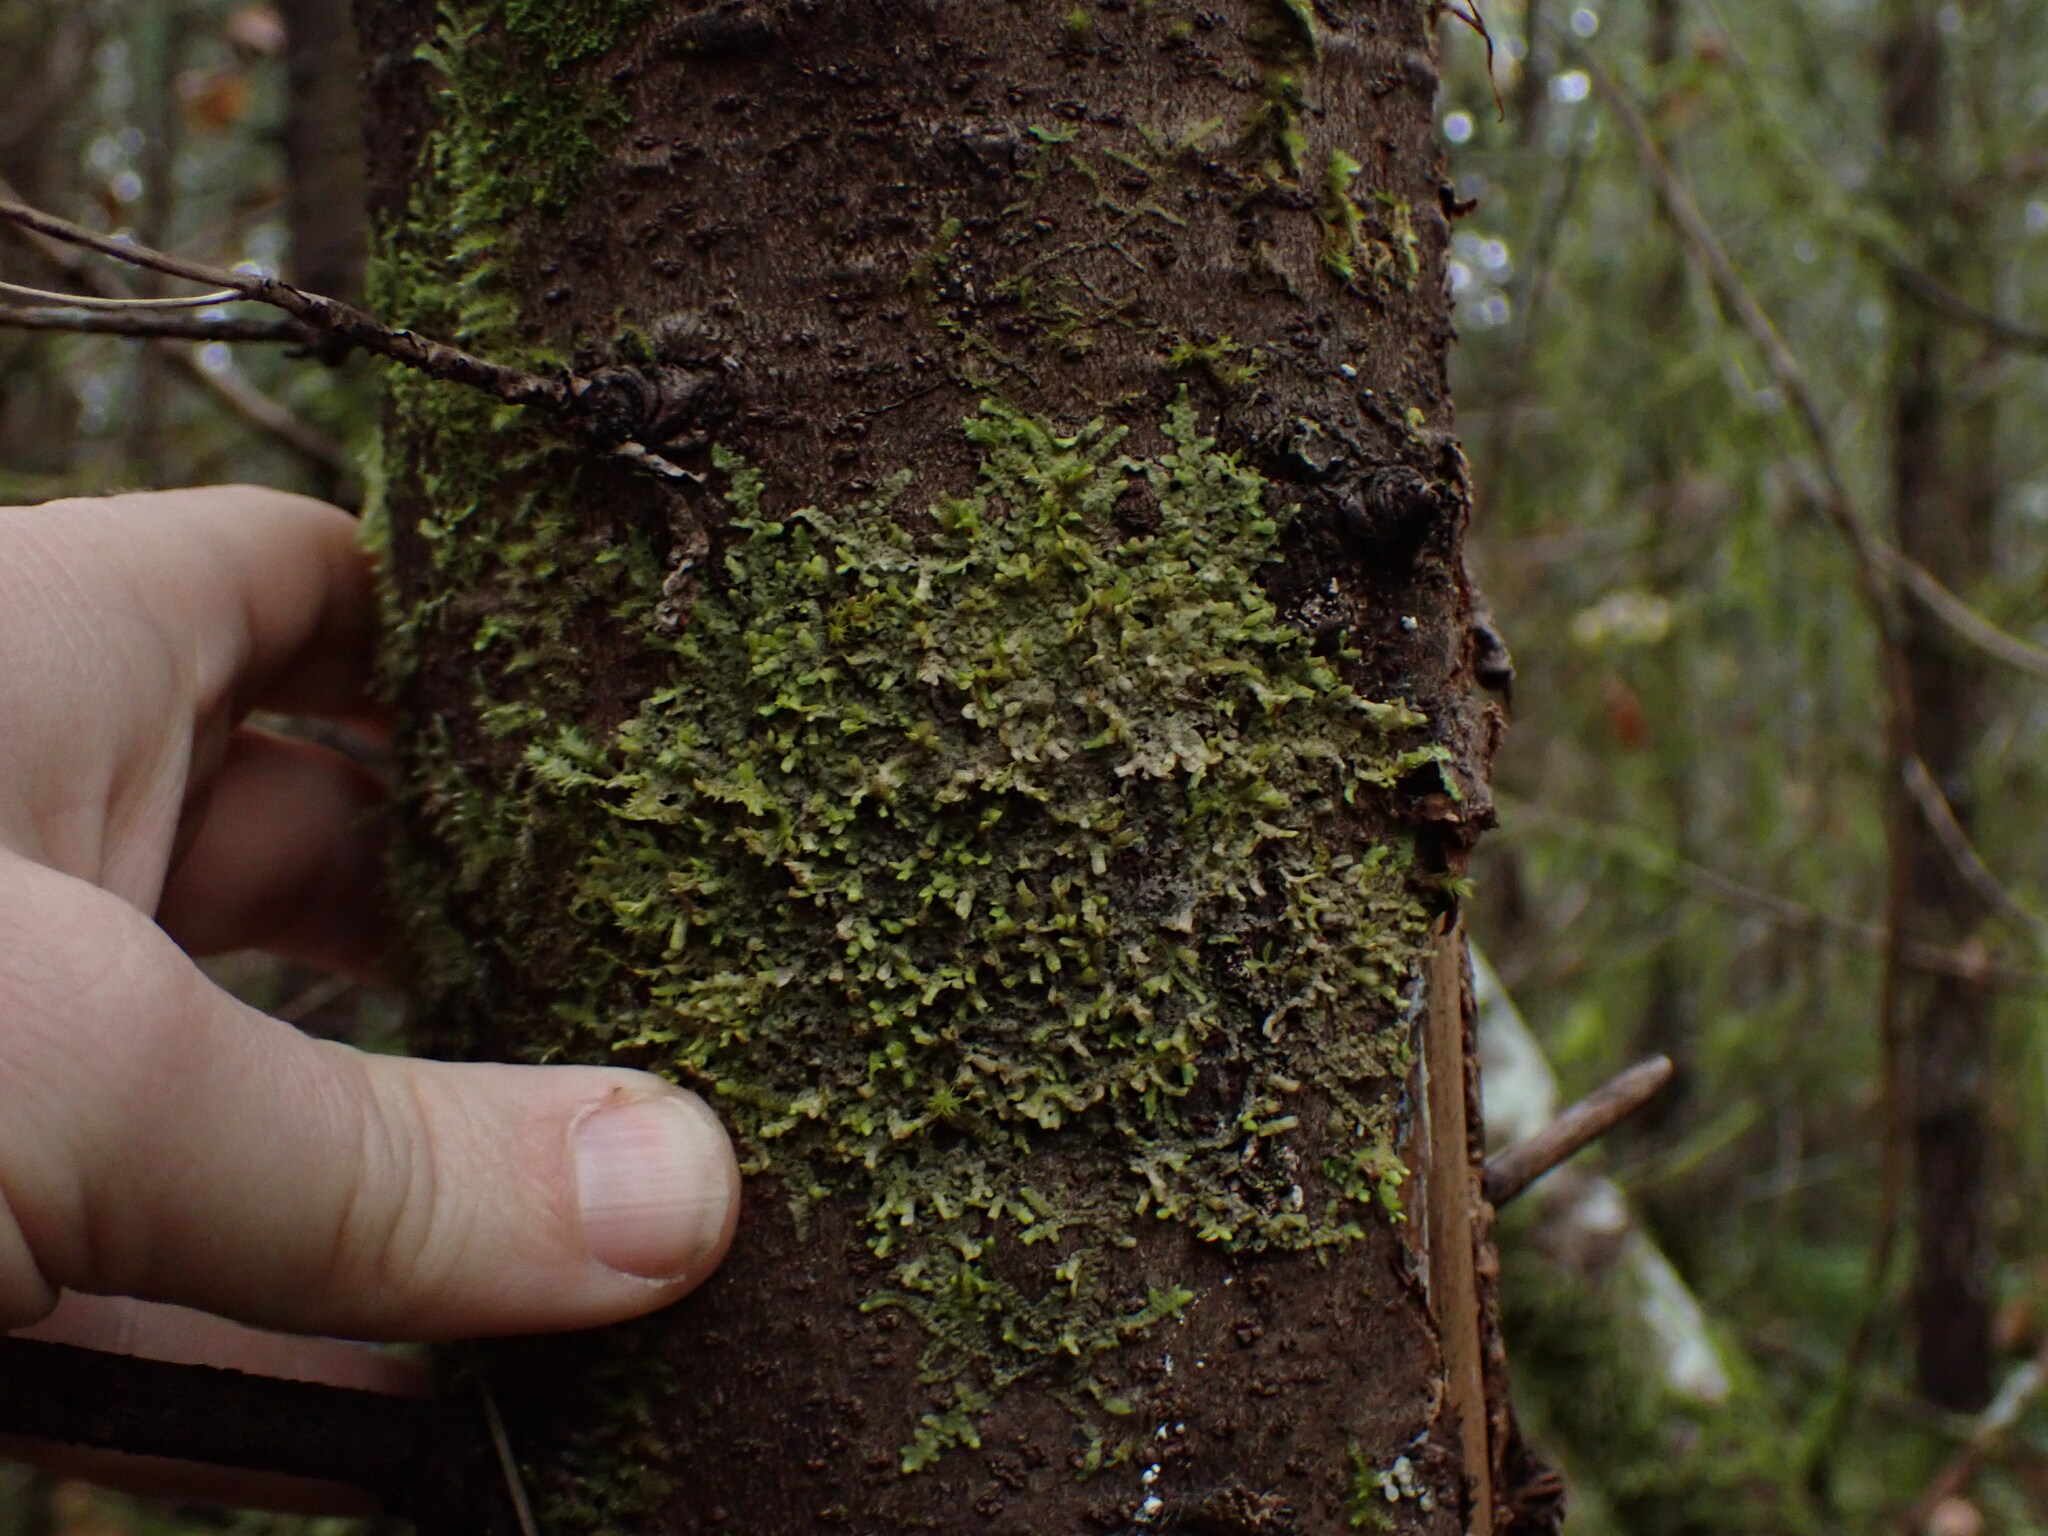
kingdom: Plantae
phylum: Marchantiophyta
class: Jungermanniopsida
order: Porellales
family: Radulaceae
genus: Radula
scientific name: Radula complanata
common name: Flat-leaved scalewort
